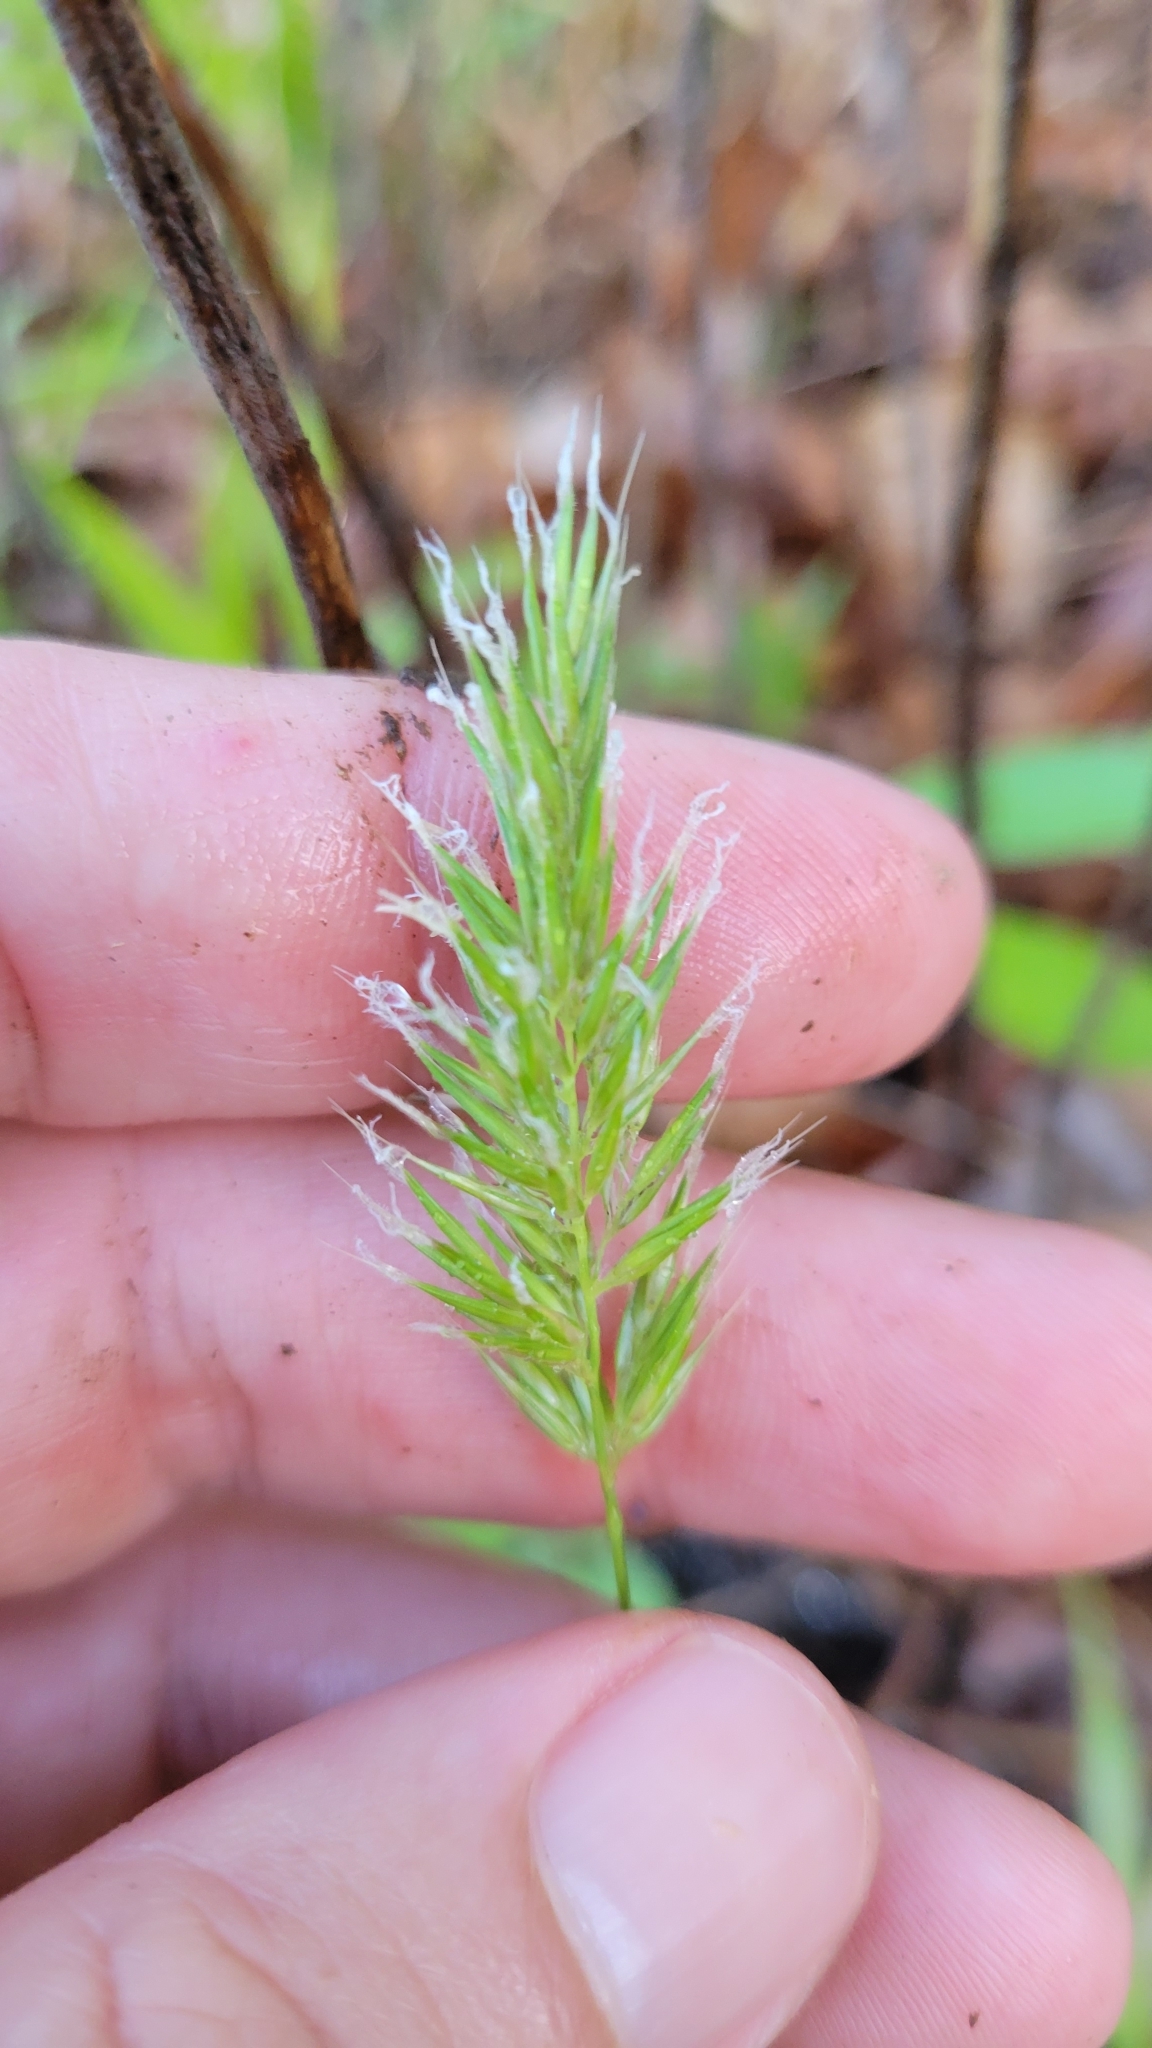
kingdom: Plantae
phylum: Tracheophyta
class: Liliopsida
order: Poales
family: Poaceae
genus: Anthoxanthum
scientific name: Anthoxanthum odoratum
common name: Sweet vernalgrass
